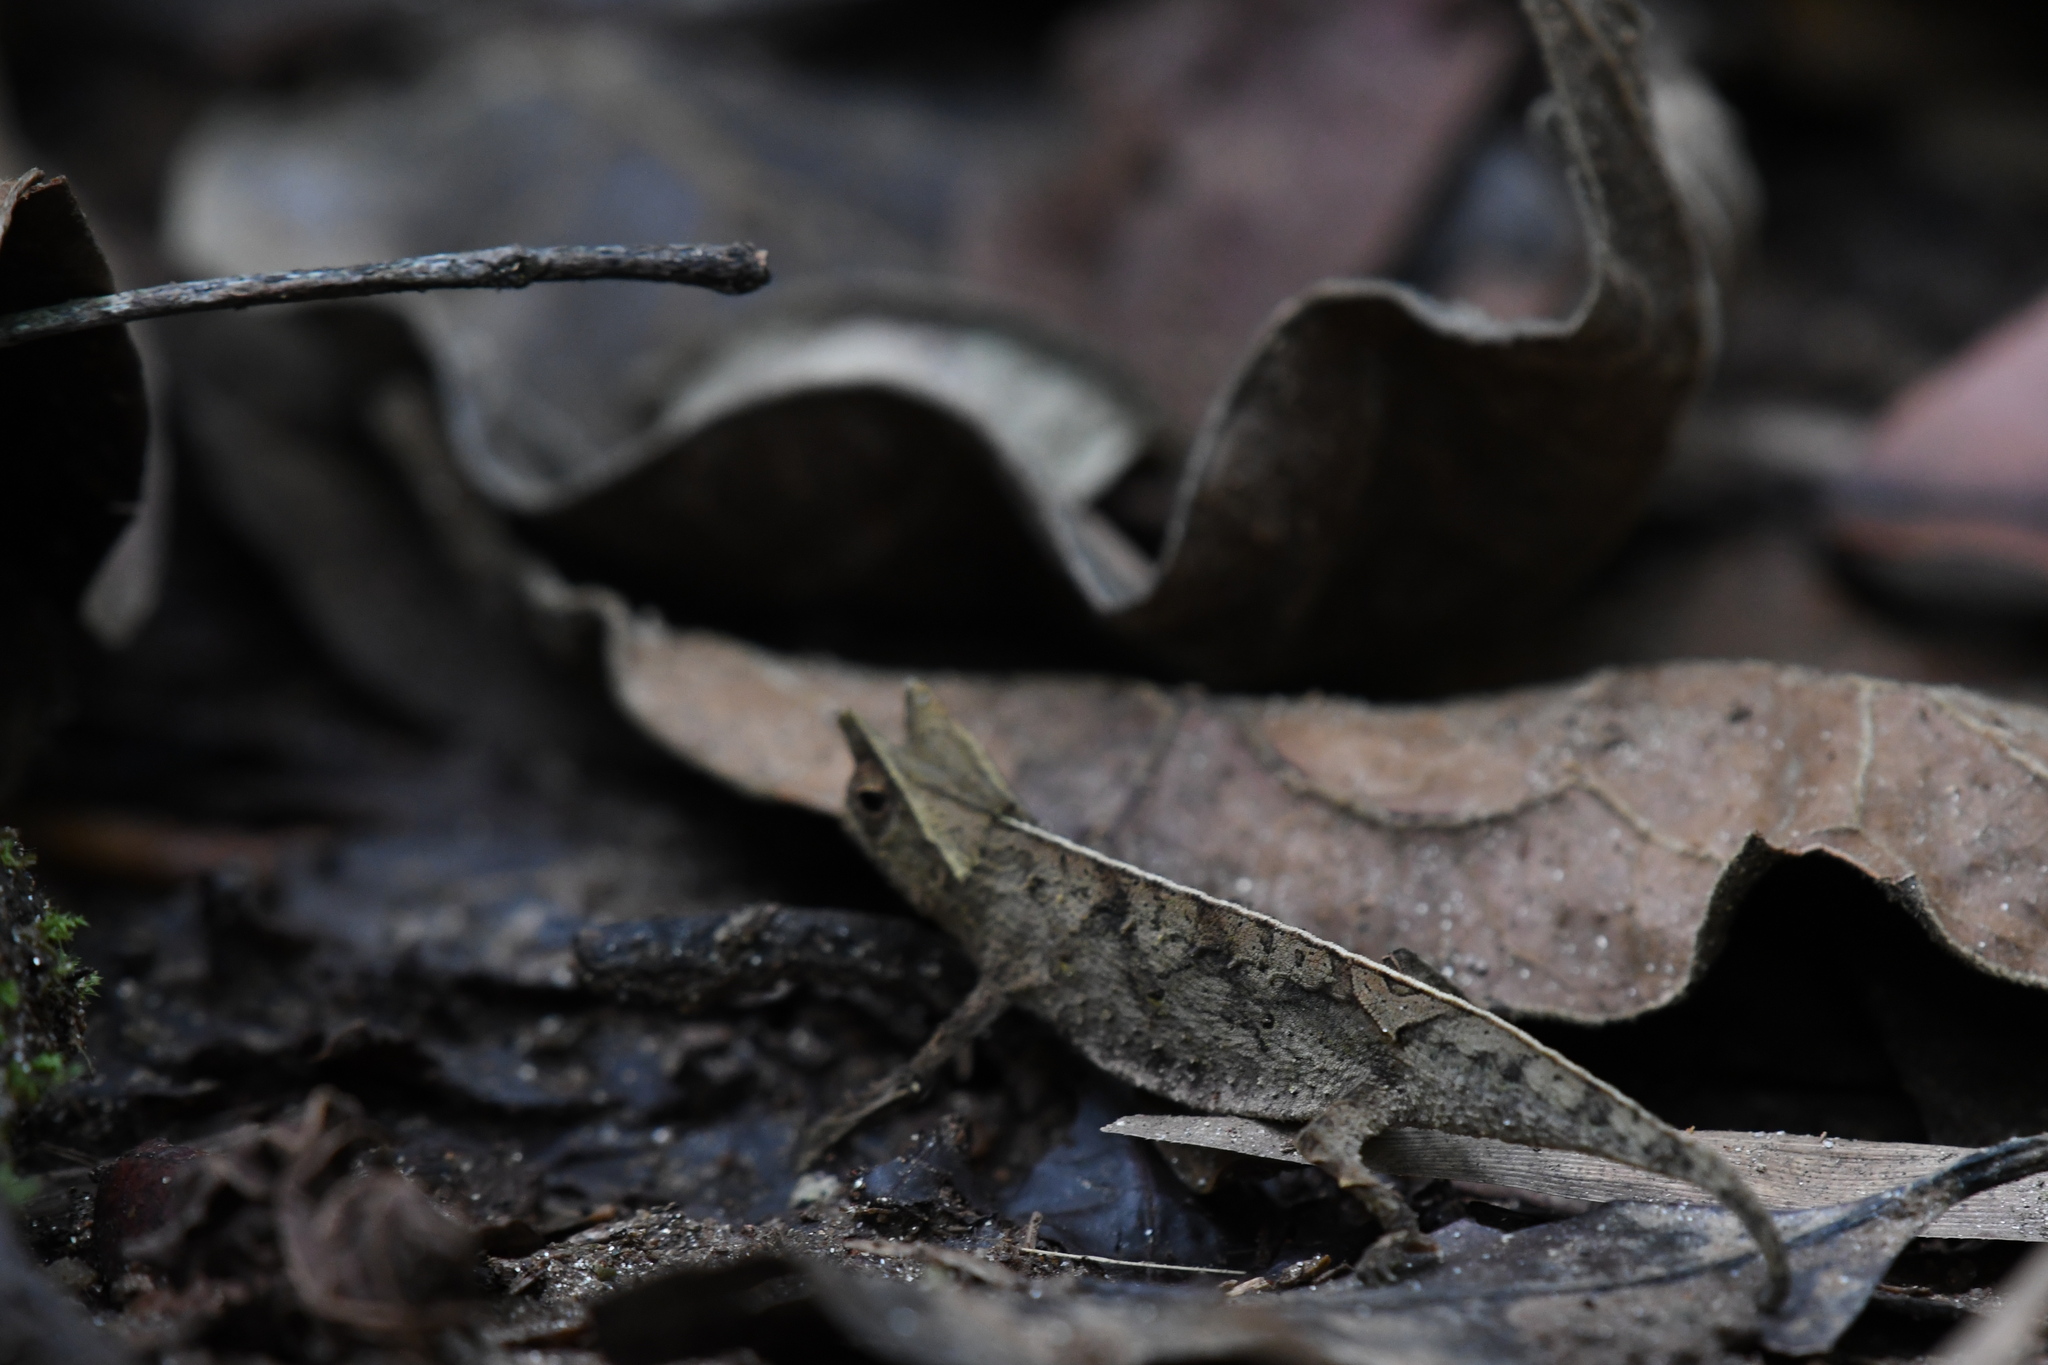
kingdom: Animalia
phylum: Chordata
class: Squamata
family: Chamaeleonidae
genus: Brookesia
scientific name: Brookesia superciliaris
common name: Brown leaf chameleon
